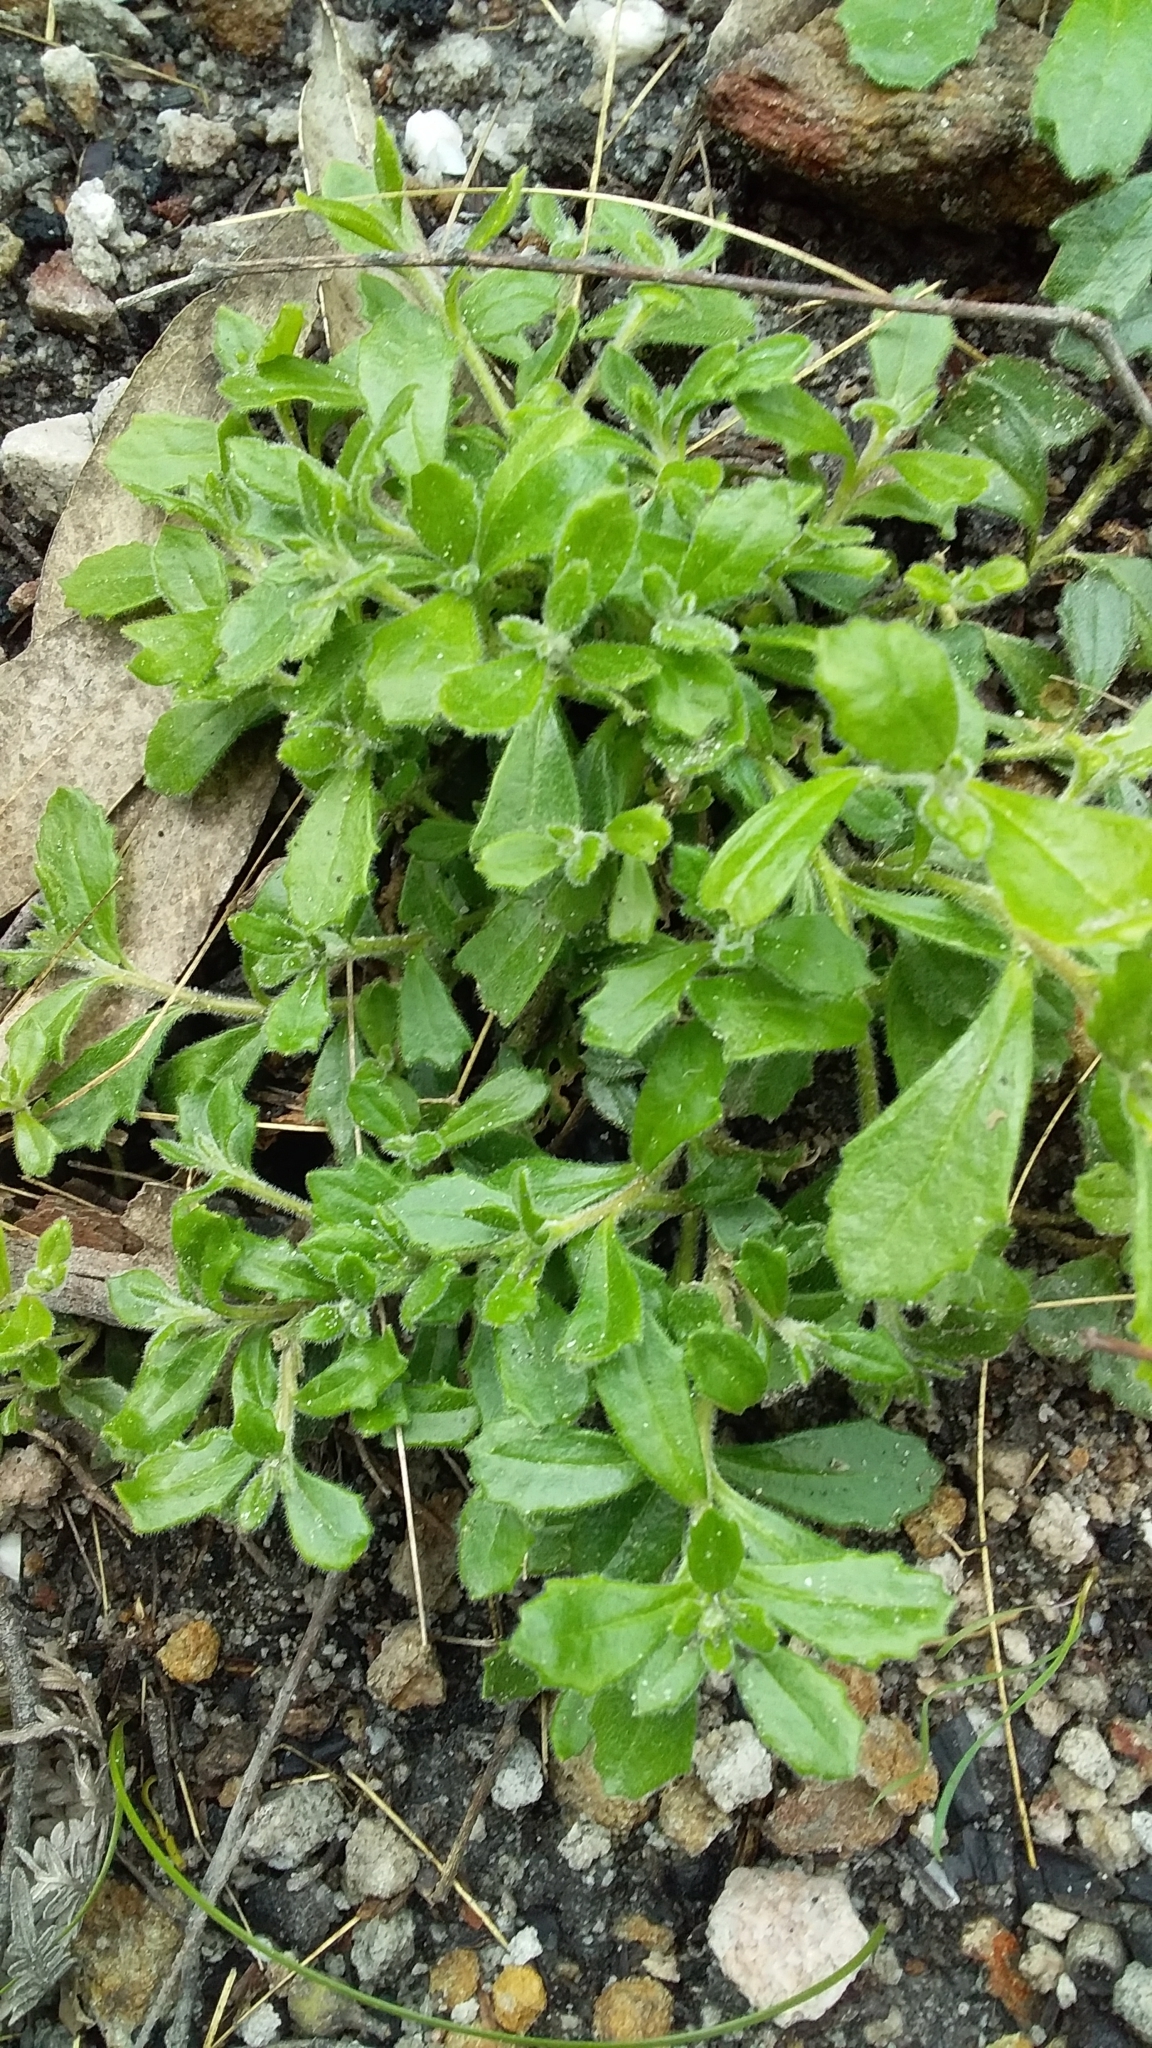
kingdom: Plantae
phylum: Tracheophyta
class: Magnoliopsida
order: Asterales
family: Goodeniaceae
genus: Scaevola
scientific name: Scaevola albida
